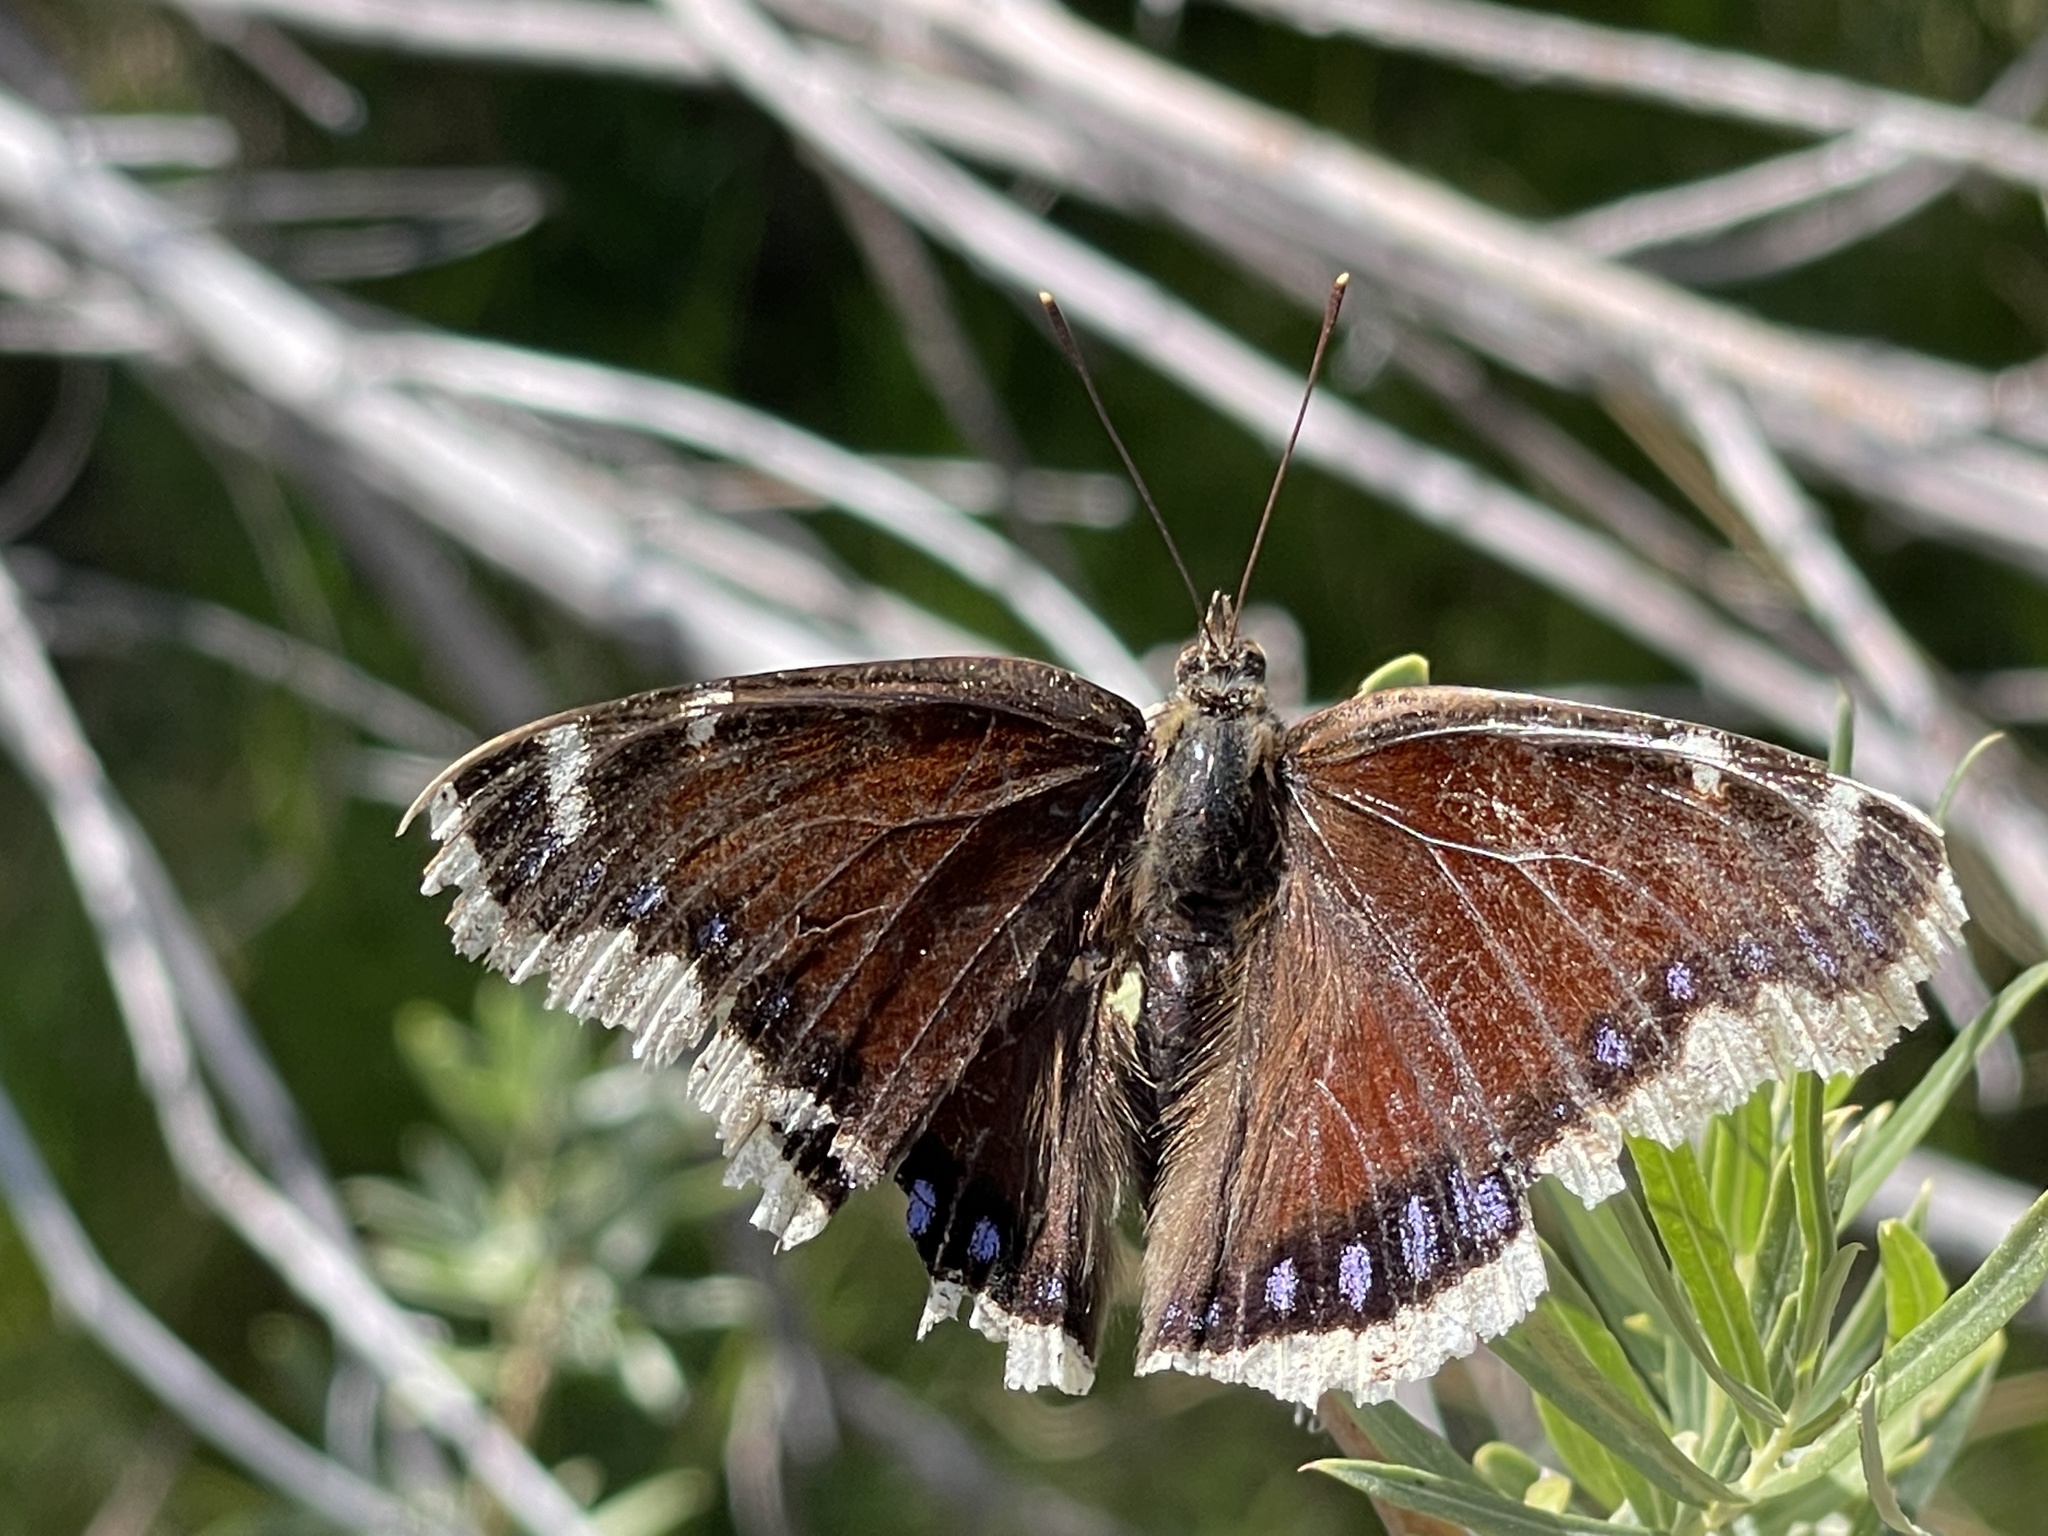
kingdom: Animalia
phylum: Arthropoda
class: Insecta
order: Lepidoptera
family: Nymphalidae
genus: Nymphalis
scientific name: Nymphalis antiopa
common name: Camberwell beauty
